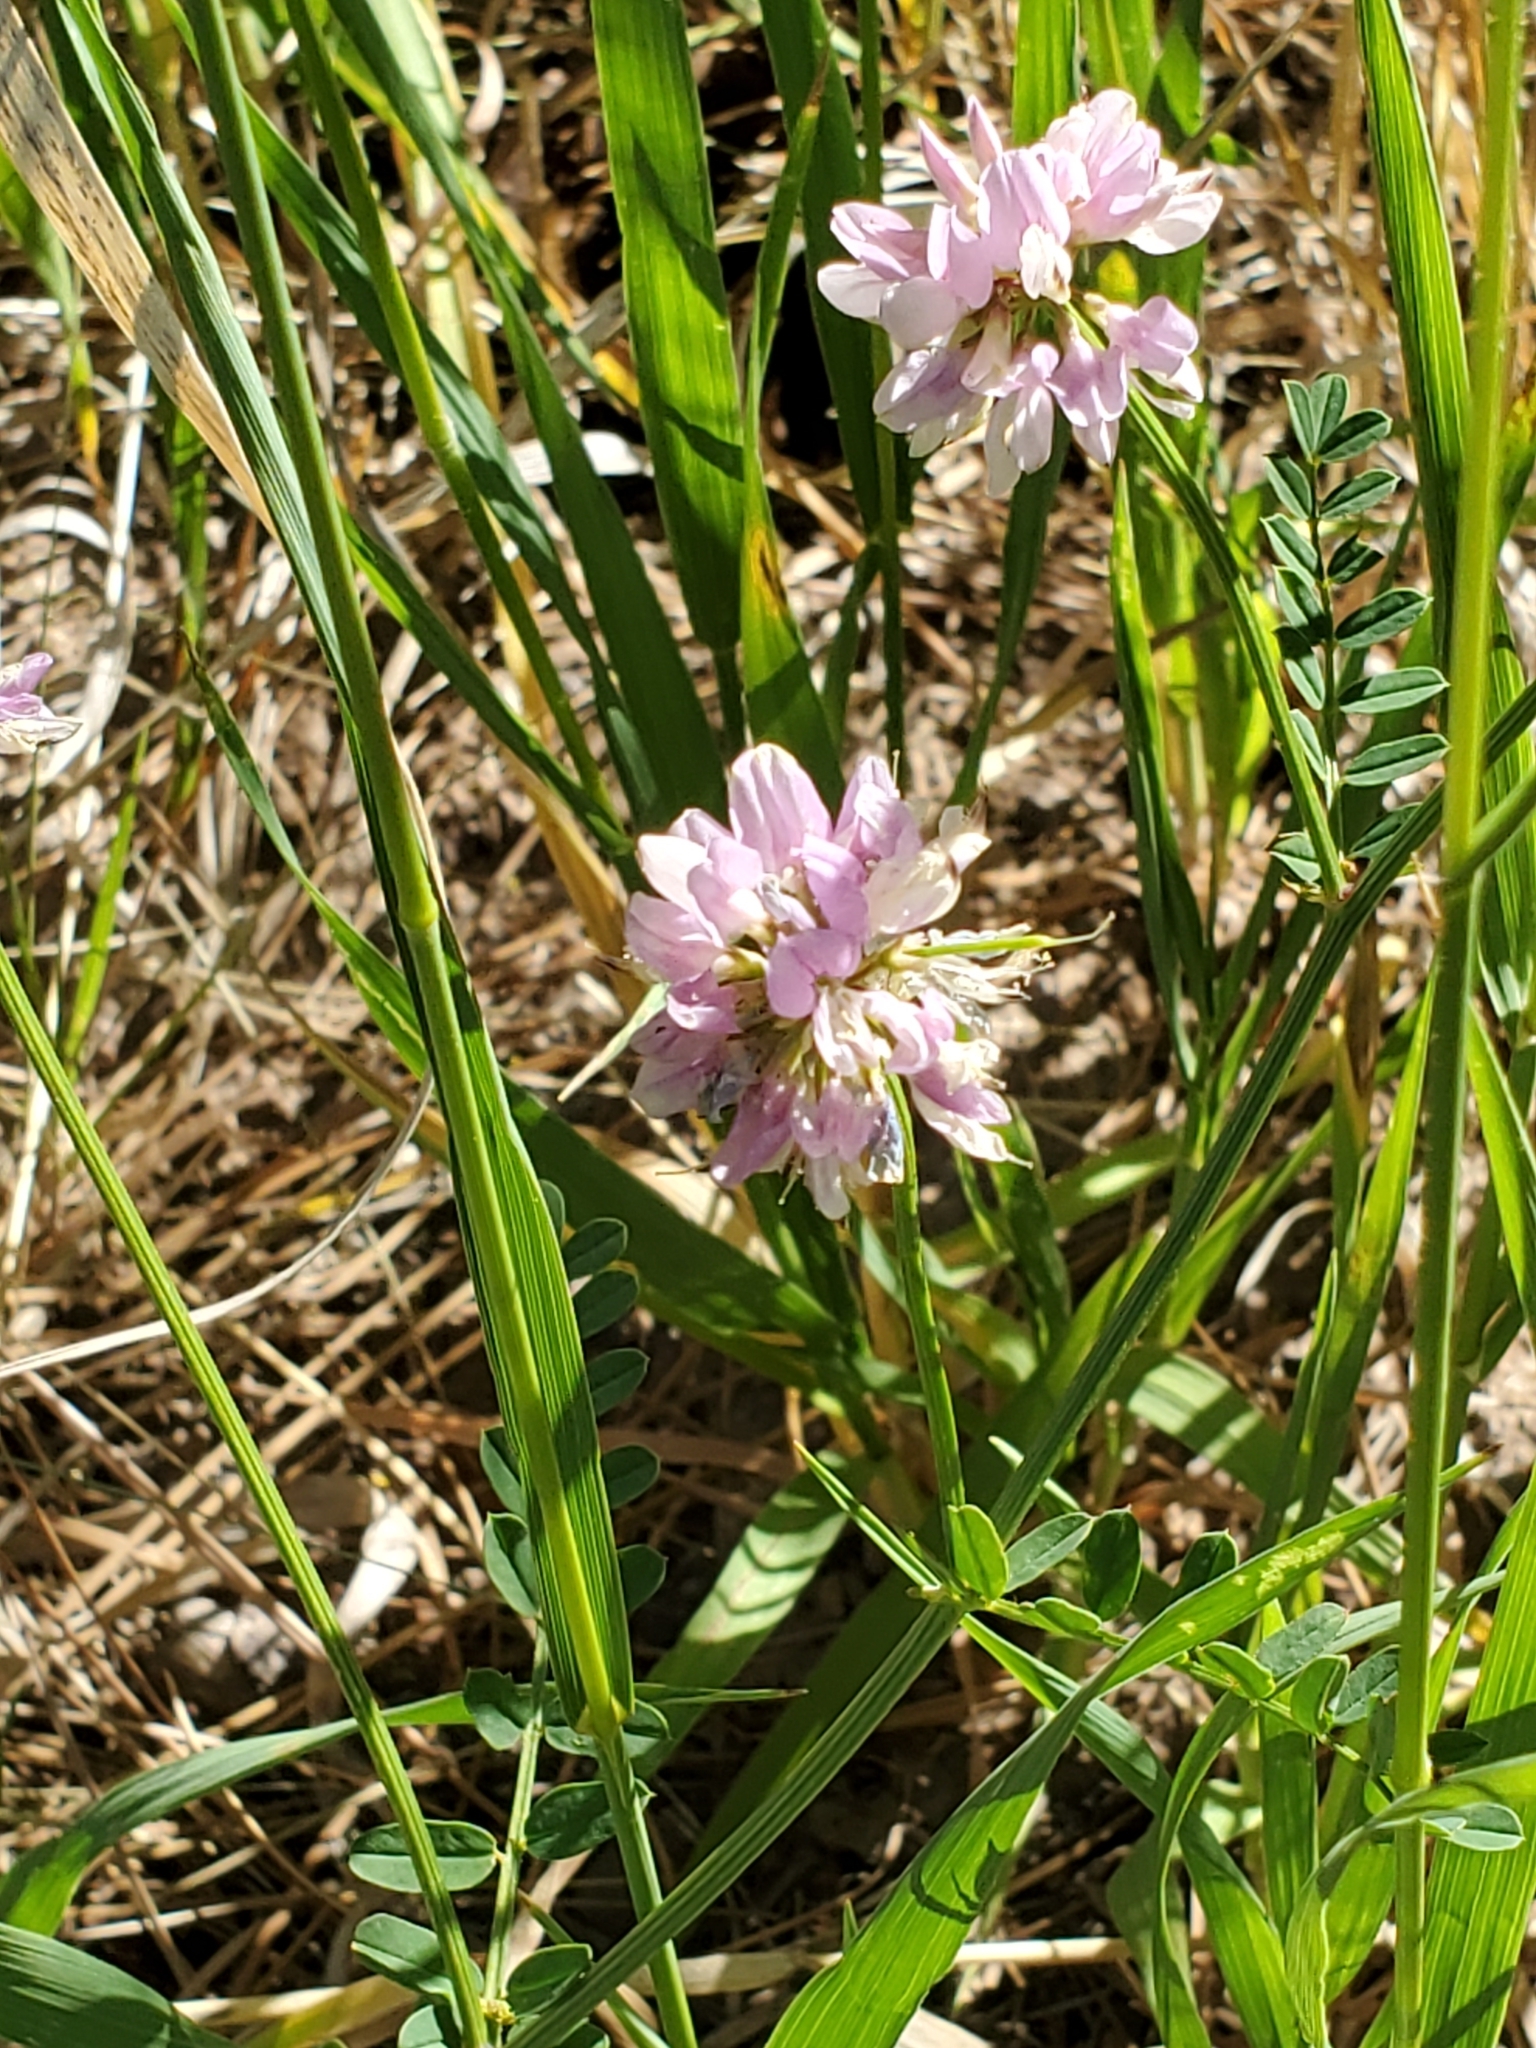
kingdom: Plantae
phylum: Tracheophyta
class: Magnoliopsida
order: Fabales
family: Fabaceae
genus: Coronilla
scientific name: Coronilla varia
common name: Crownvetch
